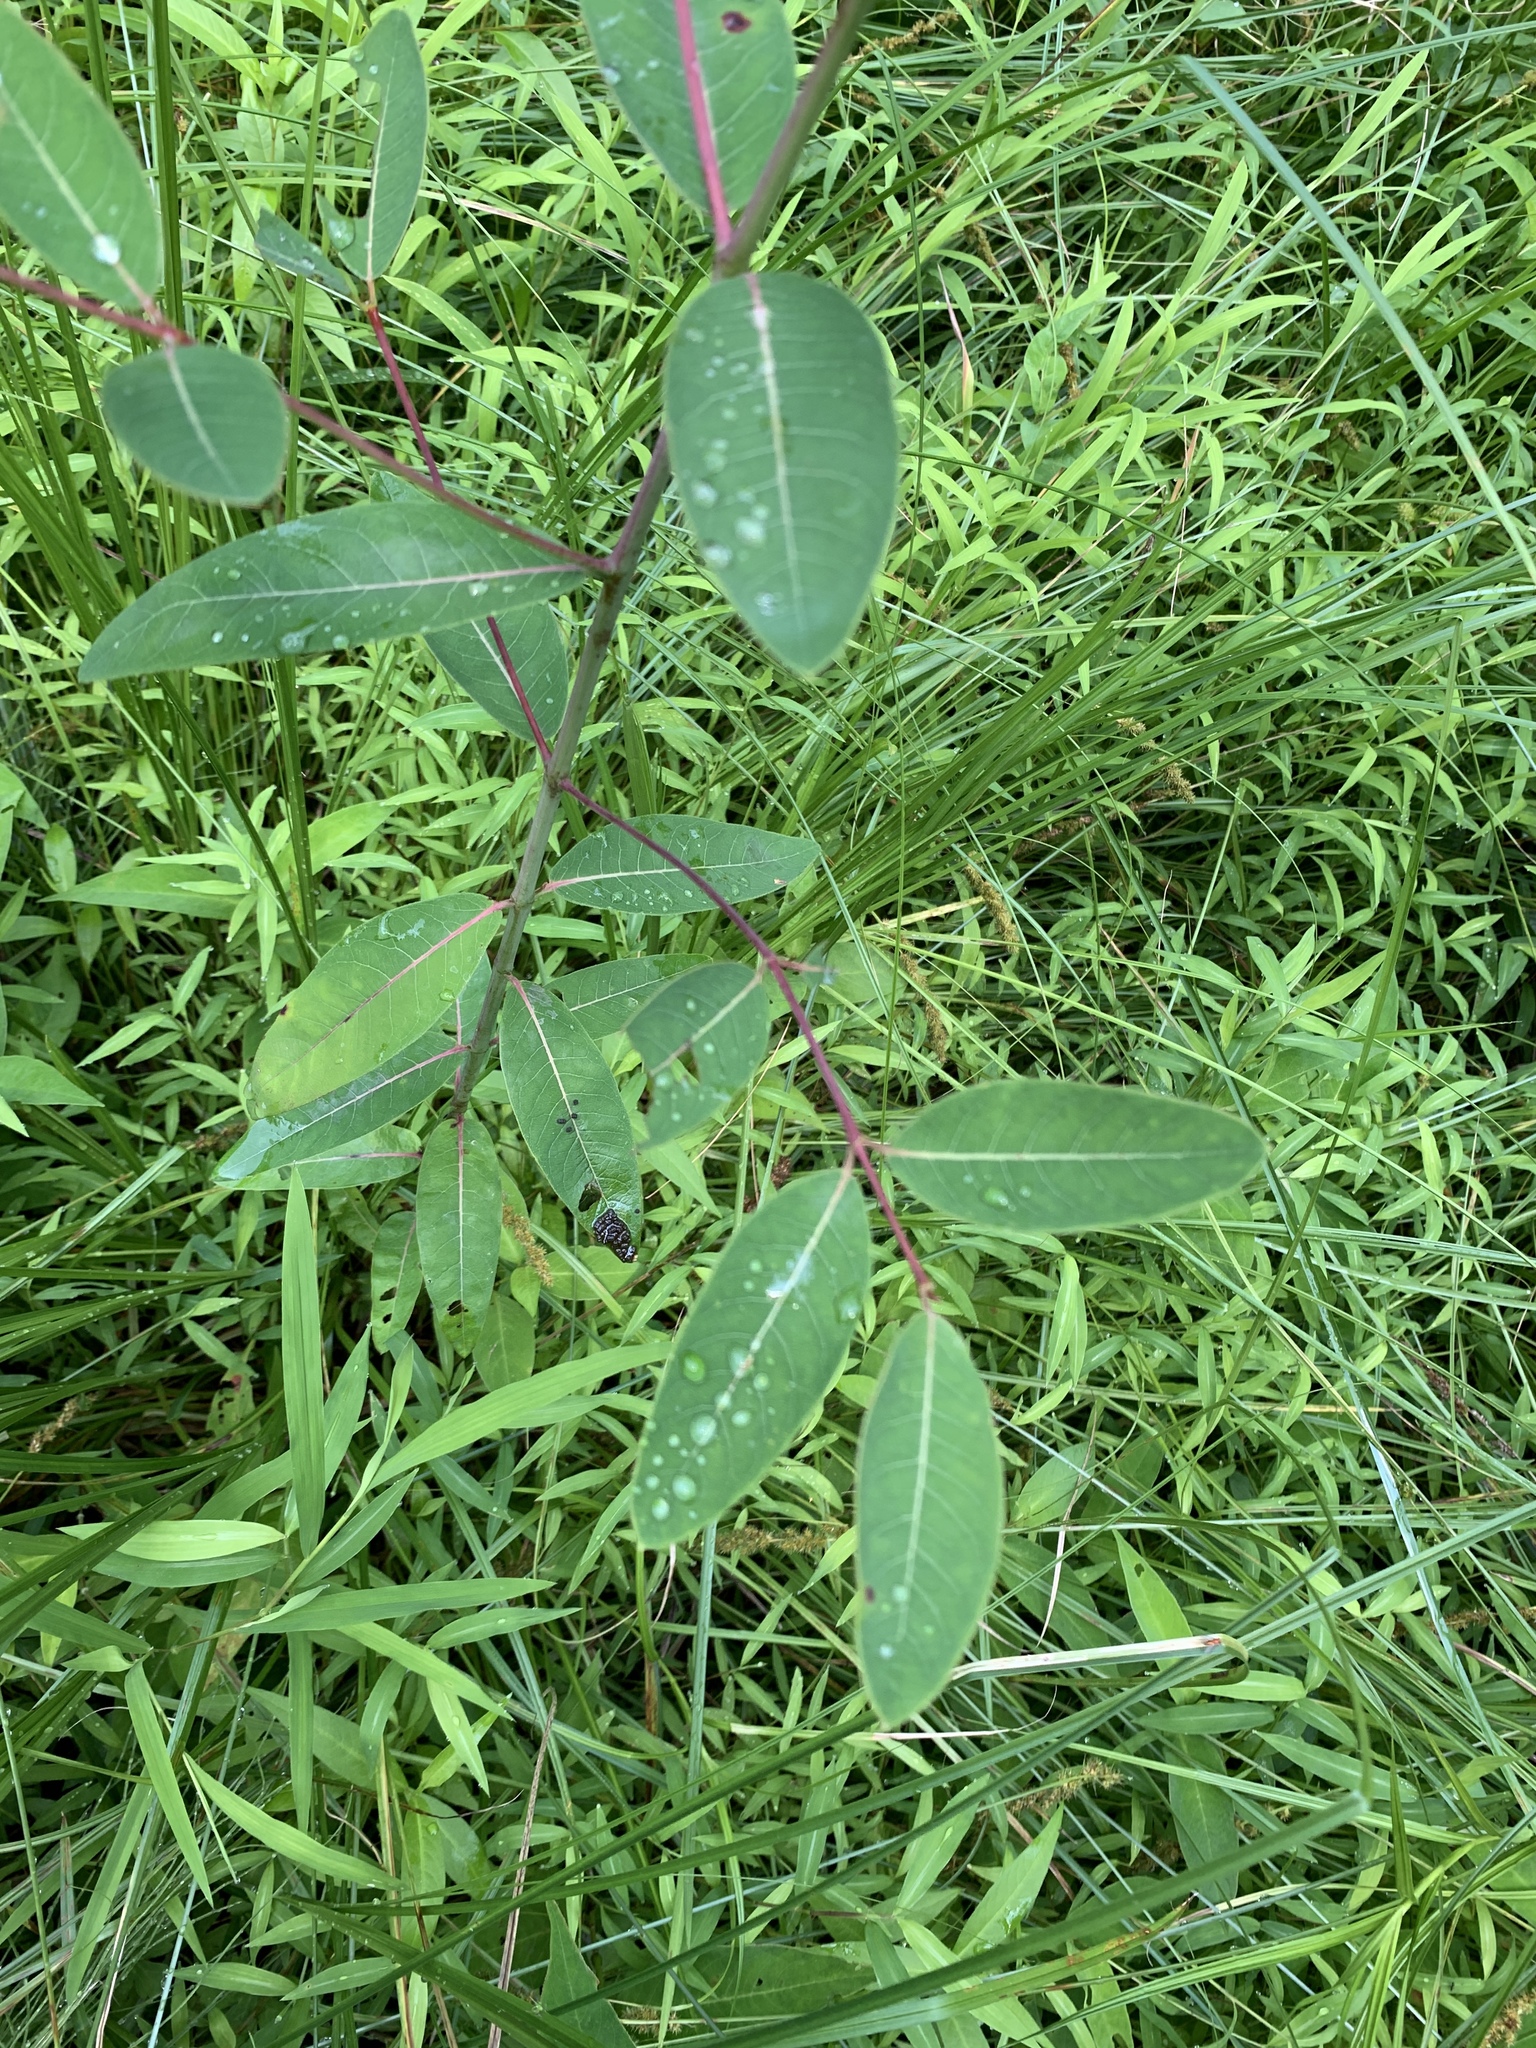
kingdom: Plantae
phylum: Tracheophyta
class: Magnoliopsida
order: Gentianales
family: Apocynaceae
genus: Apocynum
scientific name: Apocynum cannabinum
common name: Hemp dogbane
